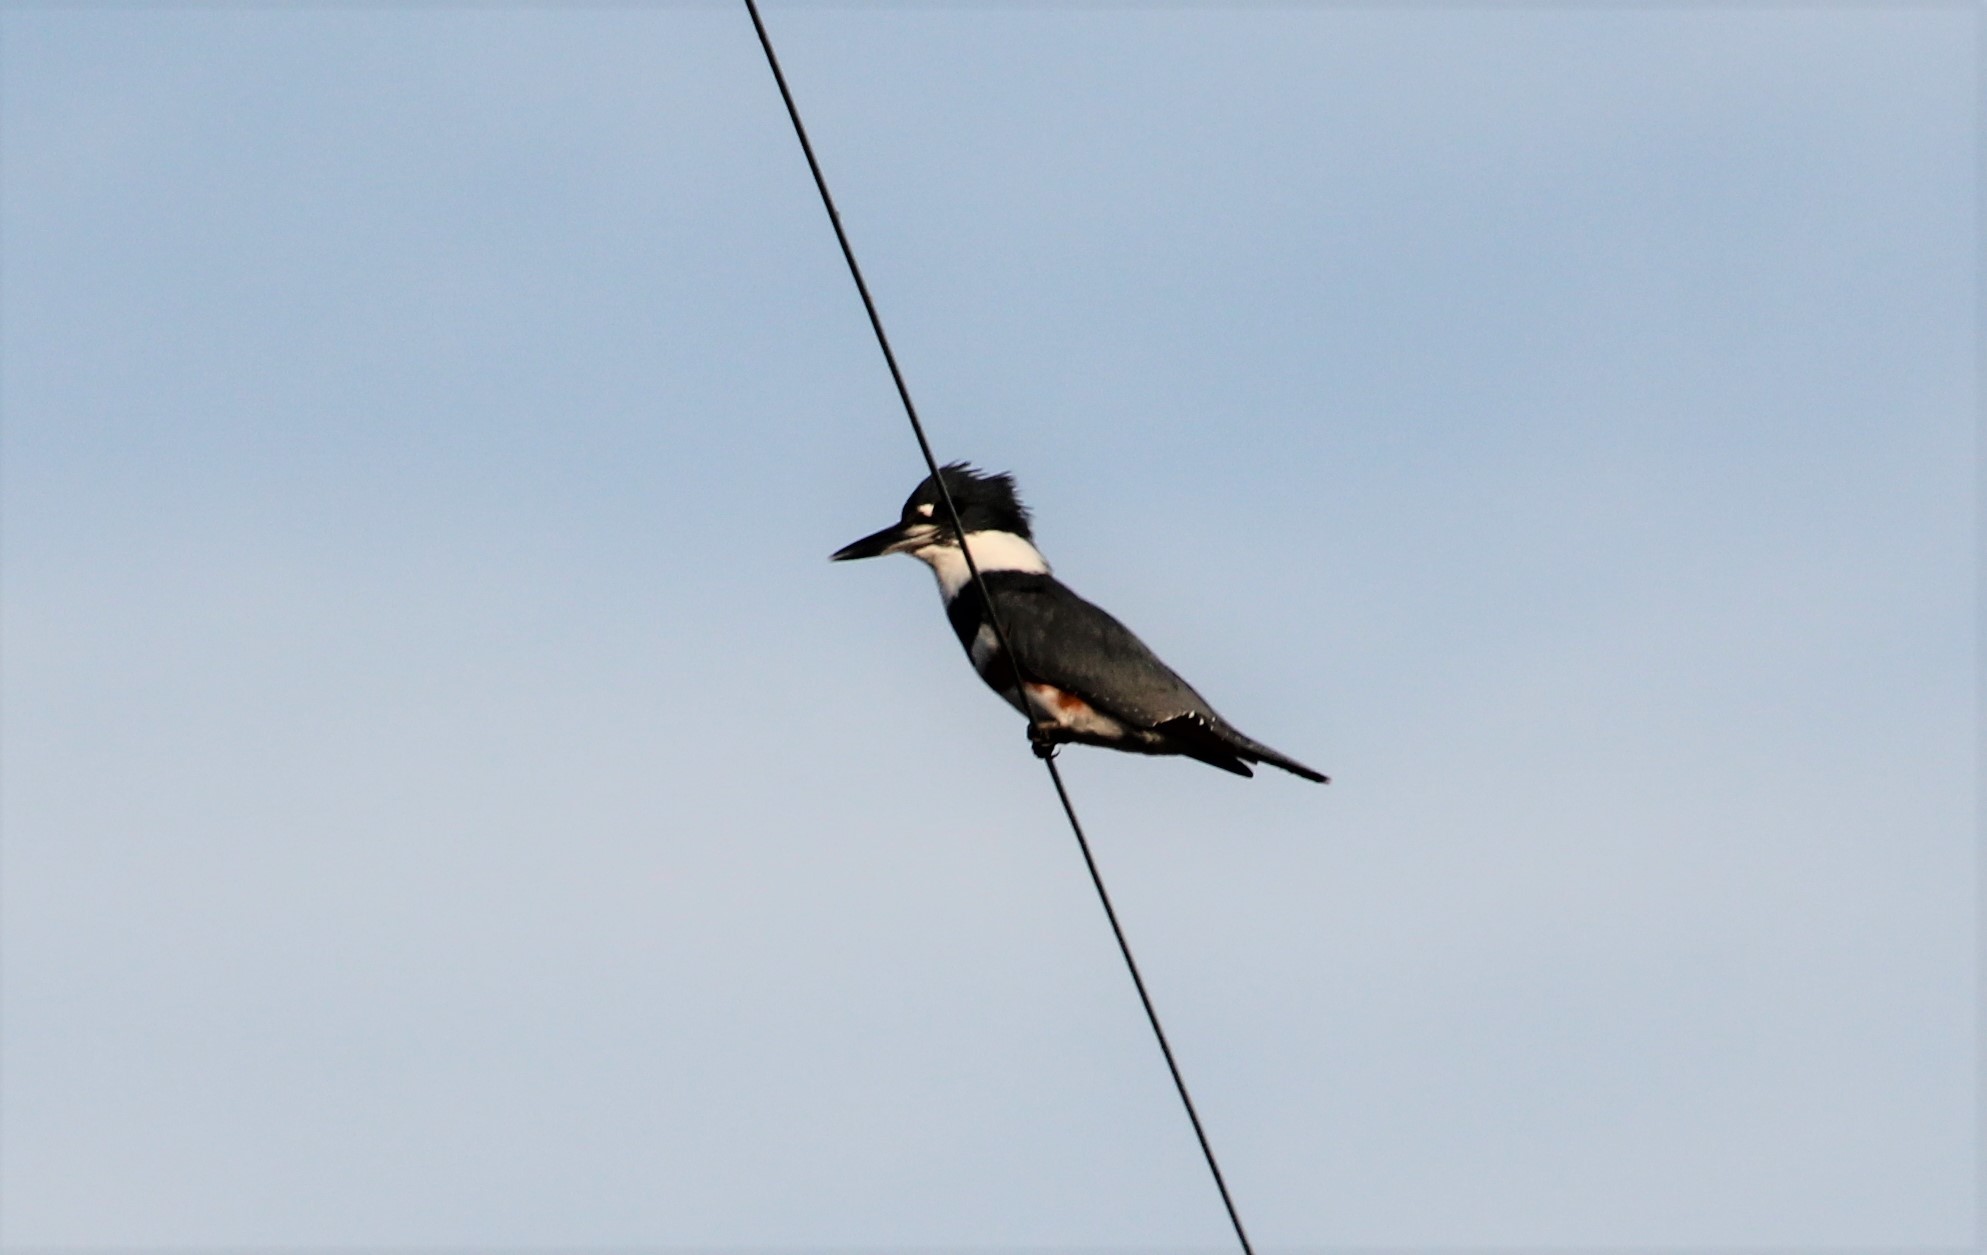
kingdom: Animalia
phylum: Chordata
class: Aves
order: Coraciiformes
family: Alcedinidae
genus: Megaceryle
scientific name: Megaceryle alcyon
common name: Belted kingfisher
